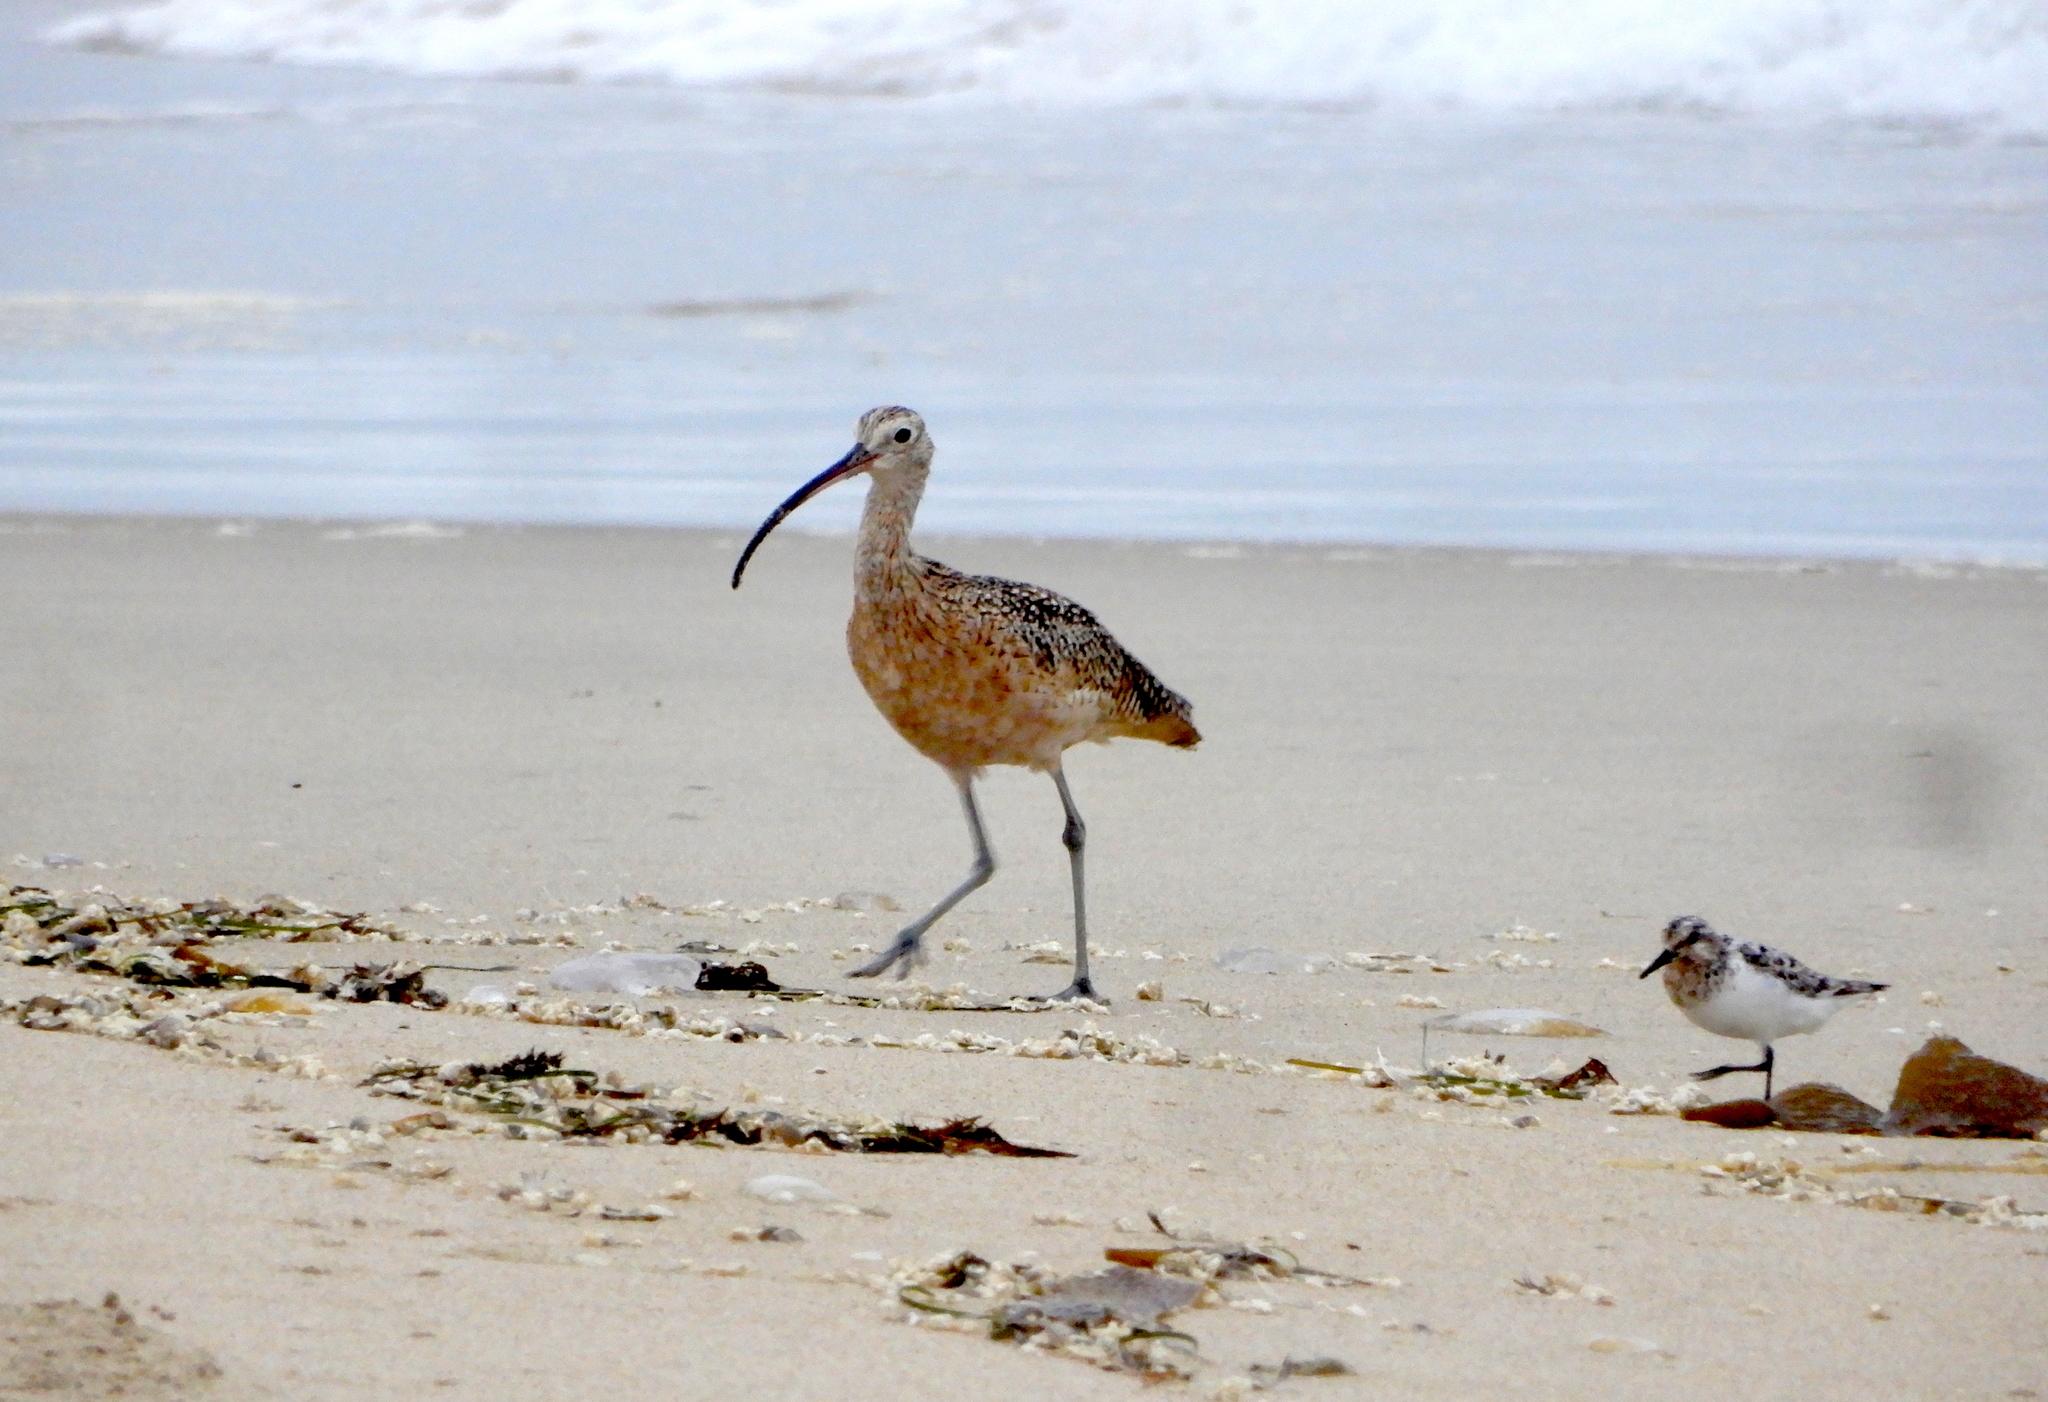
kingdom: Animalia
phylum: Chordata
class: Aves
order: Charadriiformes
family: Scolopacidae
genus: Numenius
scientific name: Numenius americanus
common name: Long-billed curlew
